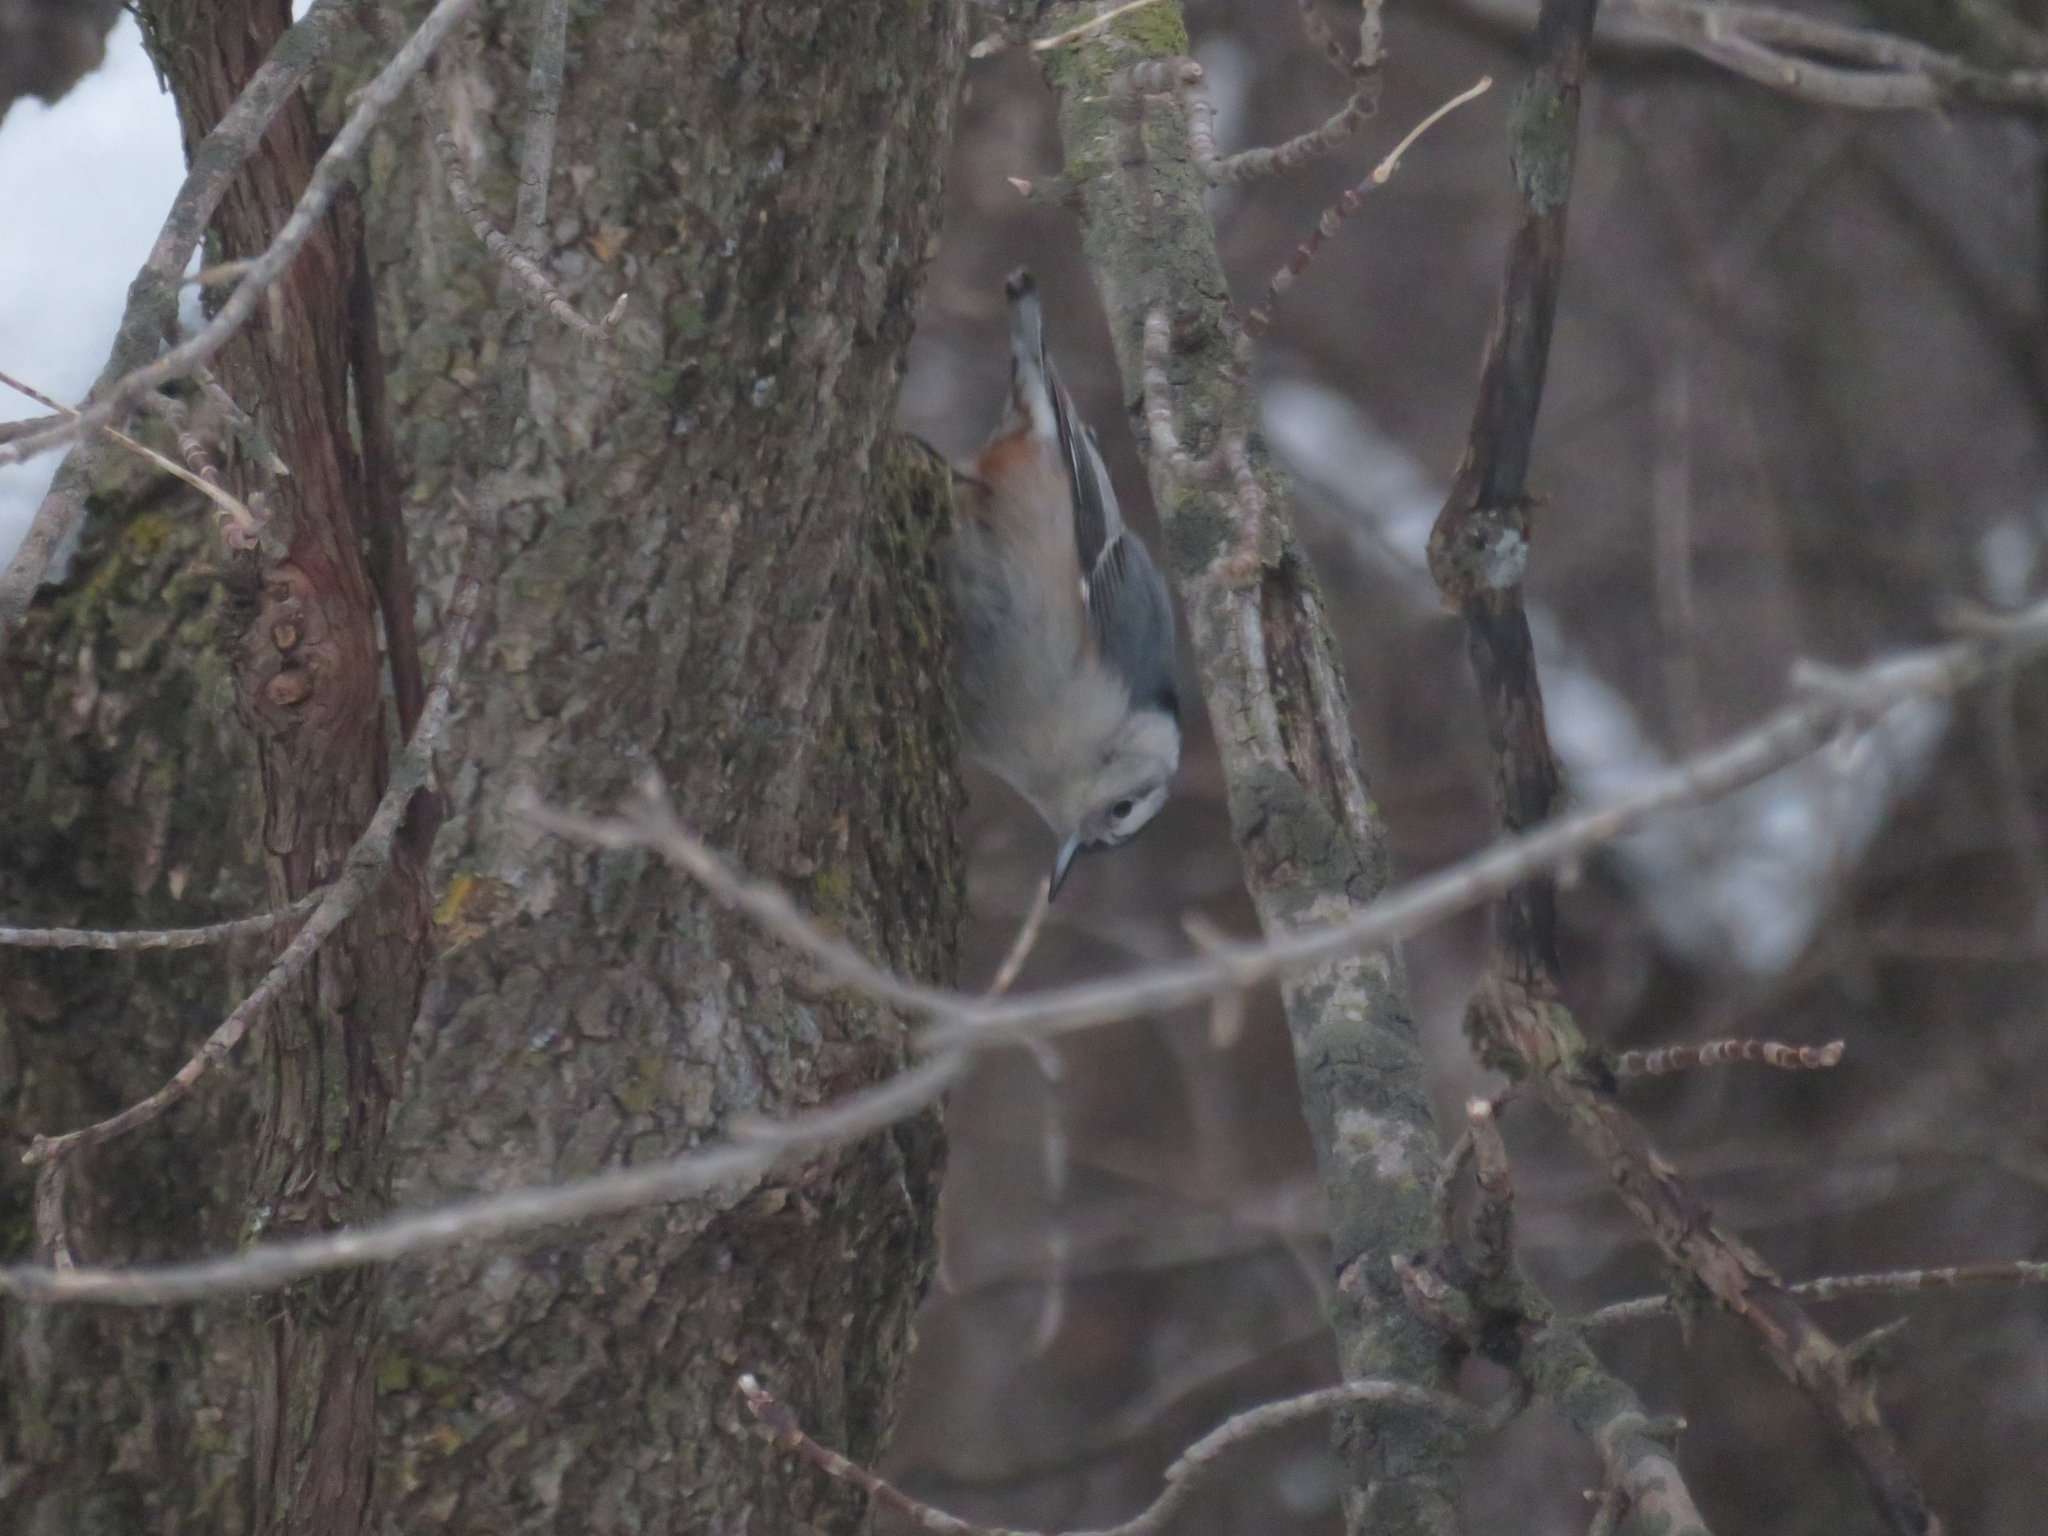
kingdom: Animalia
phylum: Chordata
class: Aves
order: Passeriformes
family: Sittidae
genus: Sitta
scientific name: Sitta carolinensis
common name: White-breasted nuthatch
